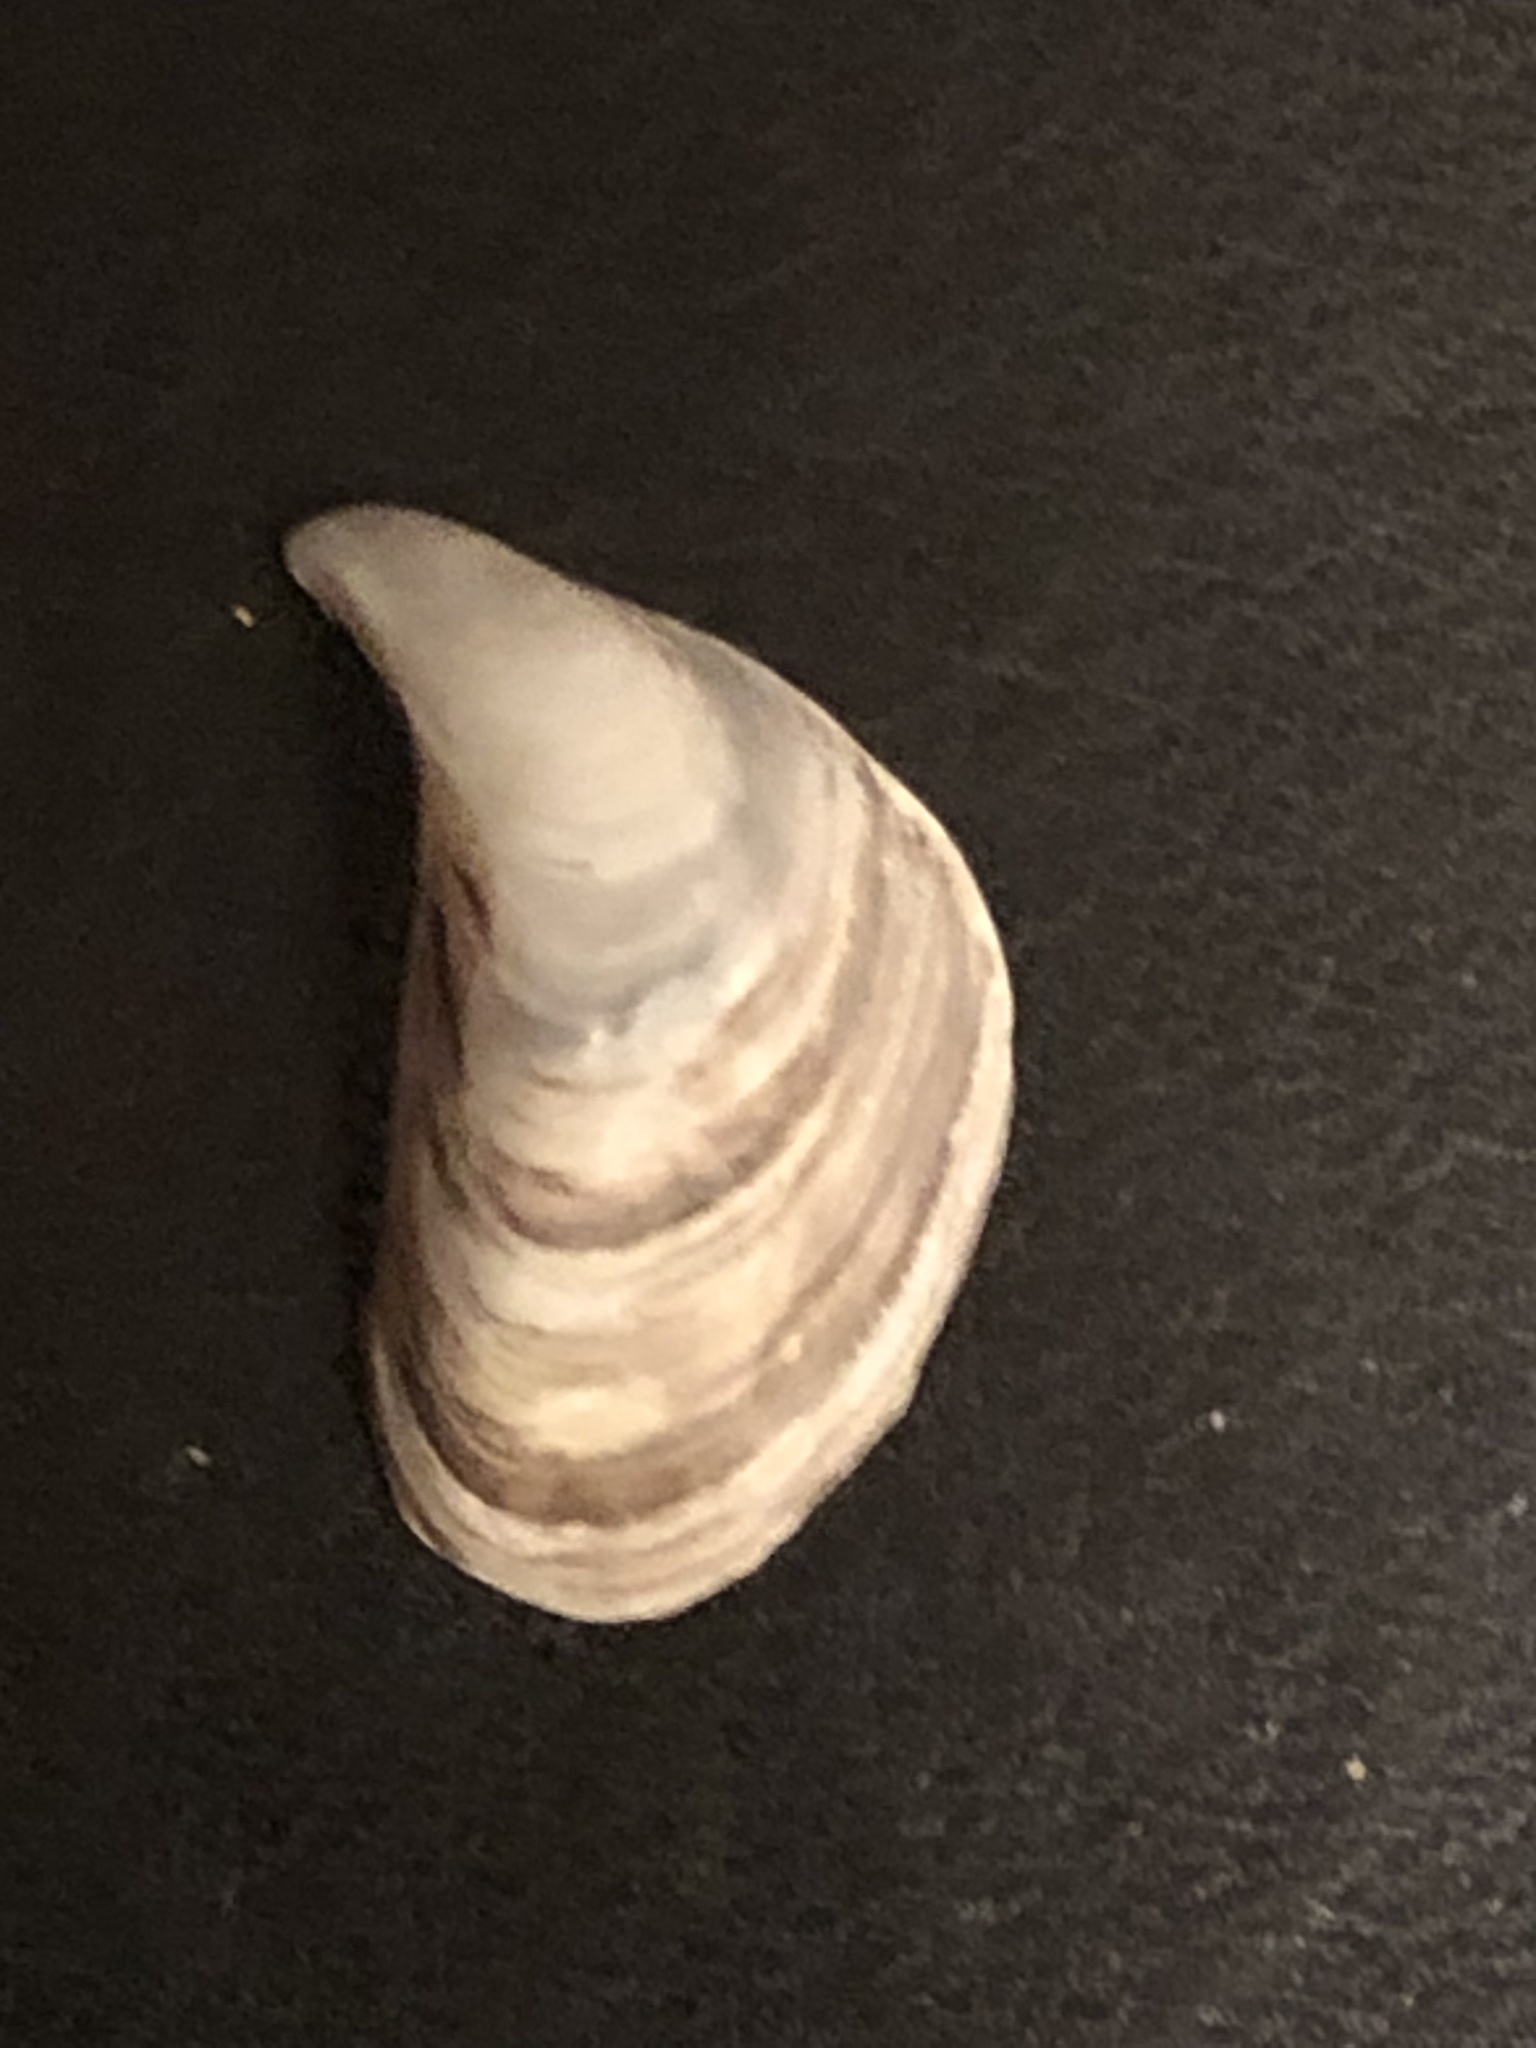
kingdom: Animalia
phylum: Mollusca
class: Bivalvia
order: Myida
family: Dreissenidae
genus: Dreissena
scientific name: Dreissena bugensis
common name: Quagga mussel
